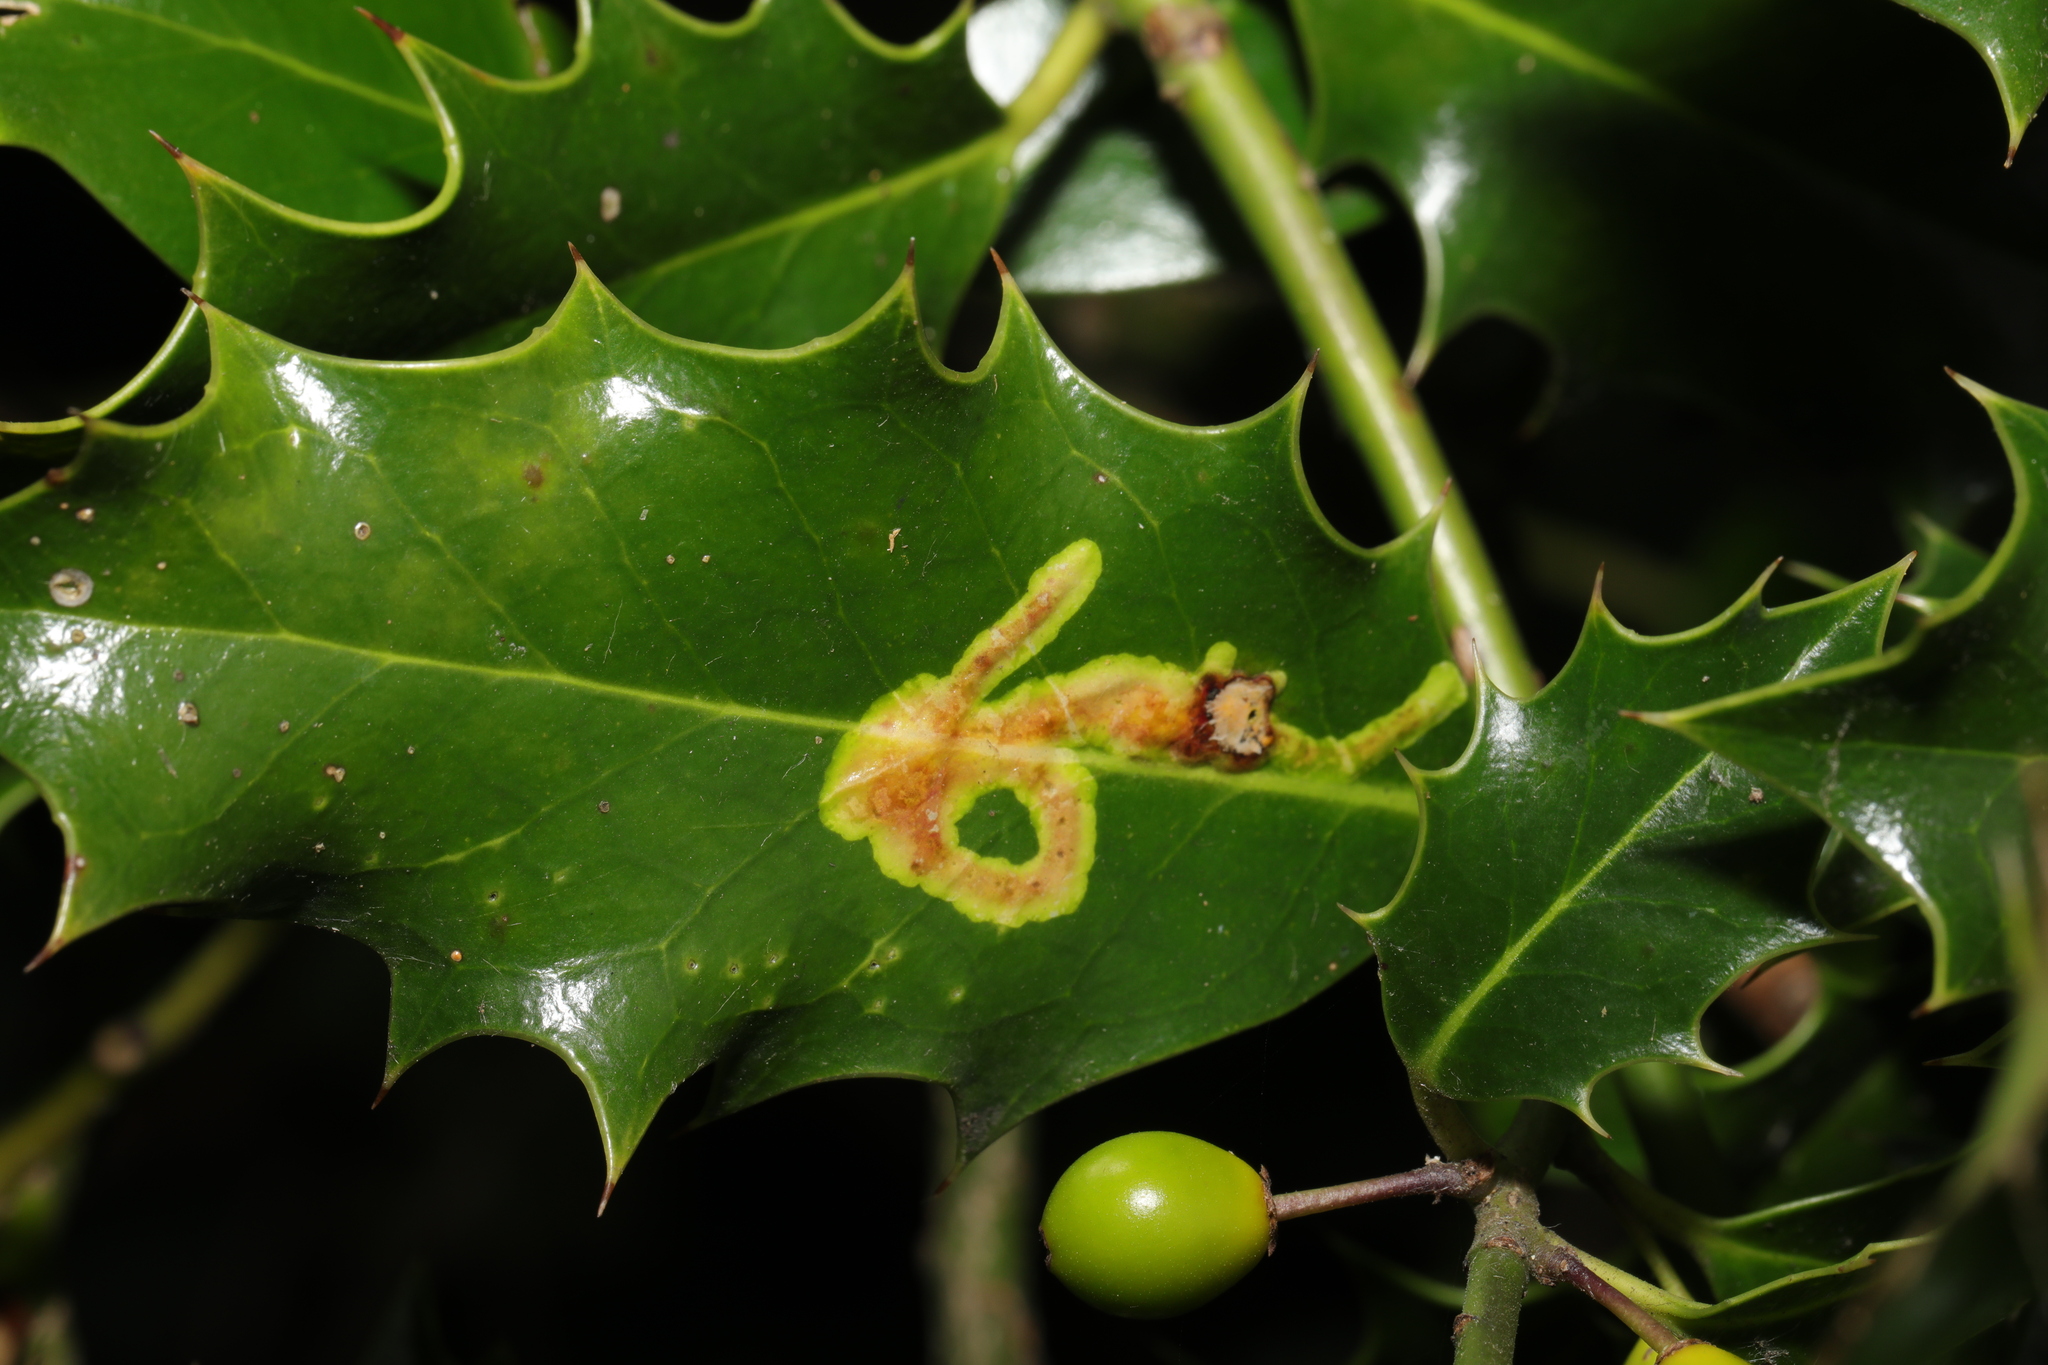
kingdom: Animalia
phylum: Arthropoda
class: Insecta
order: Diptera
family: Agromyzidae
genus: Phytomyza
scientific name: Phytomyza ilicis
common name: Holly leafminer
